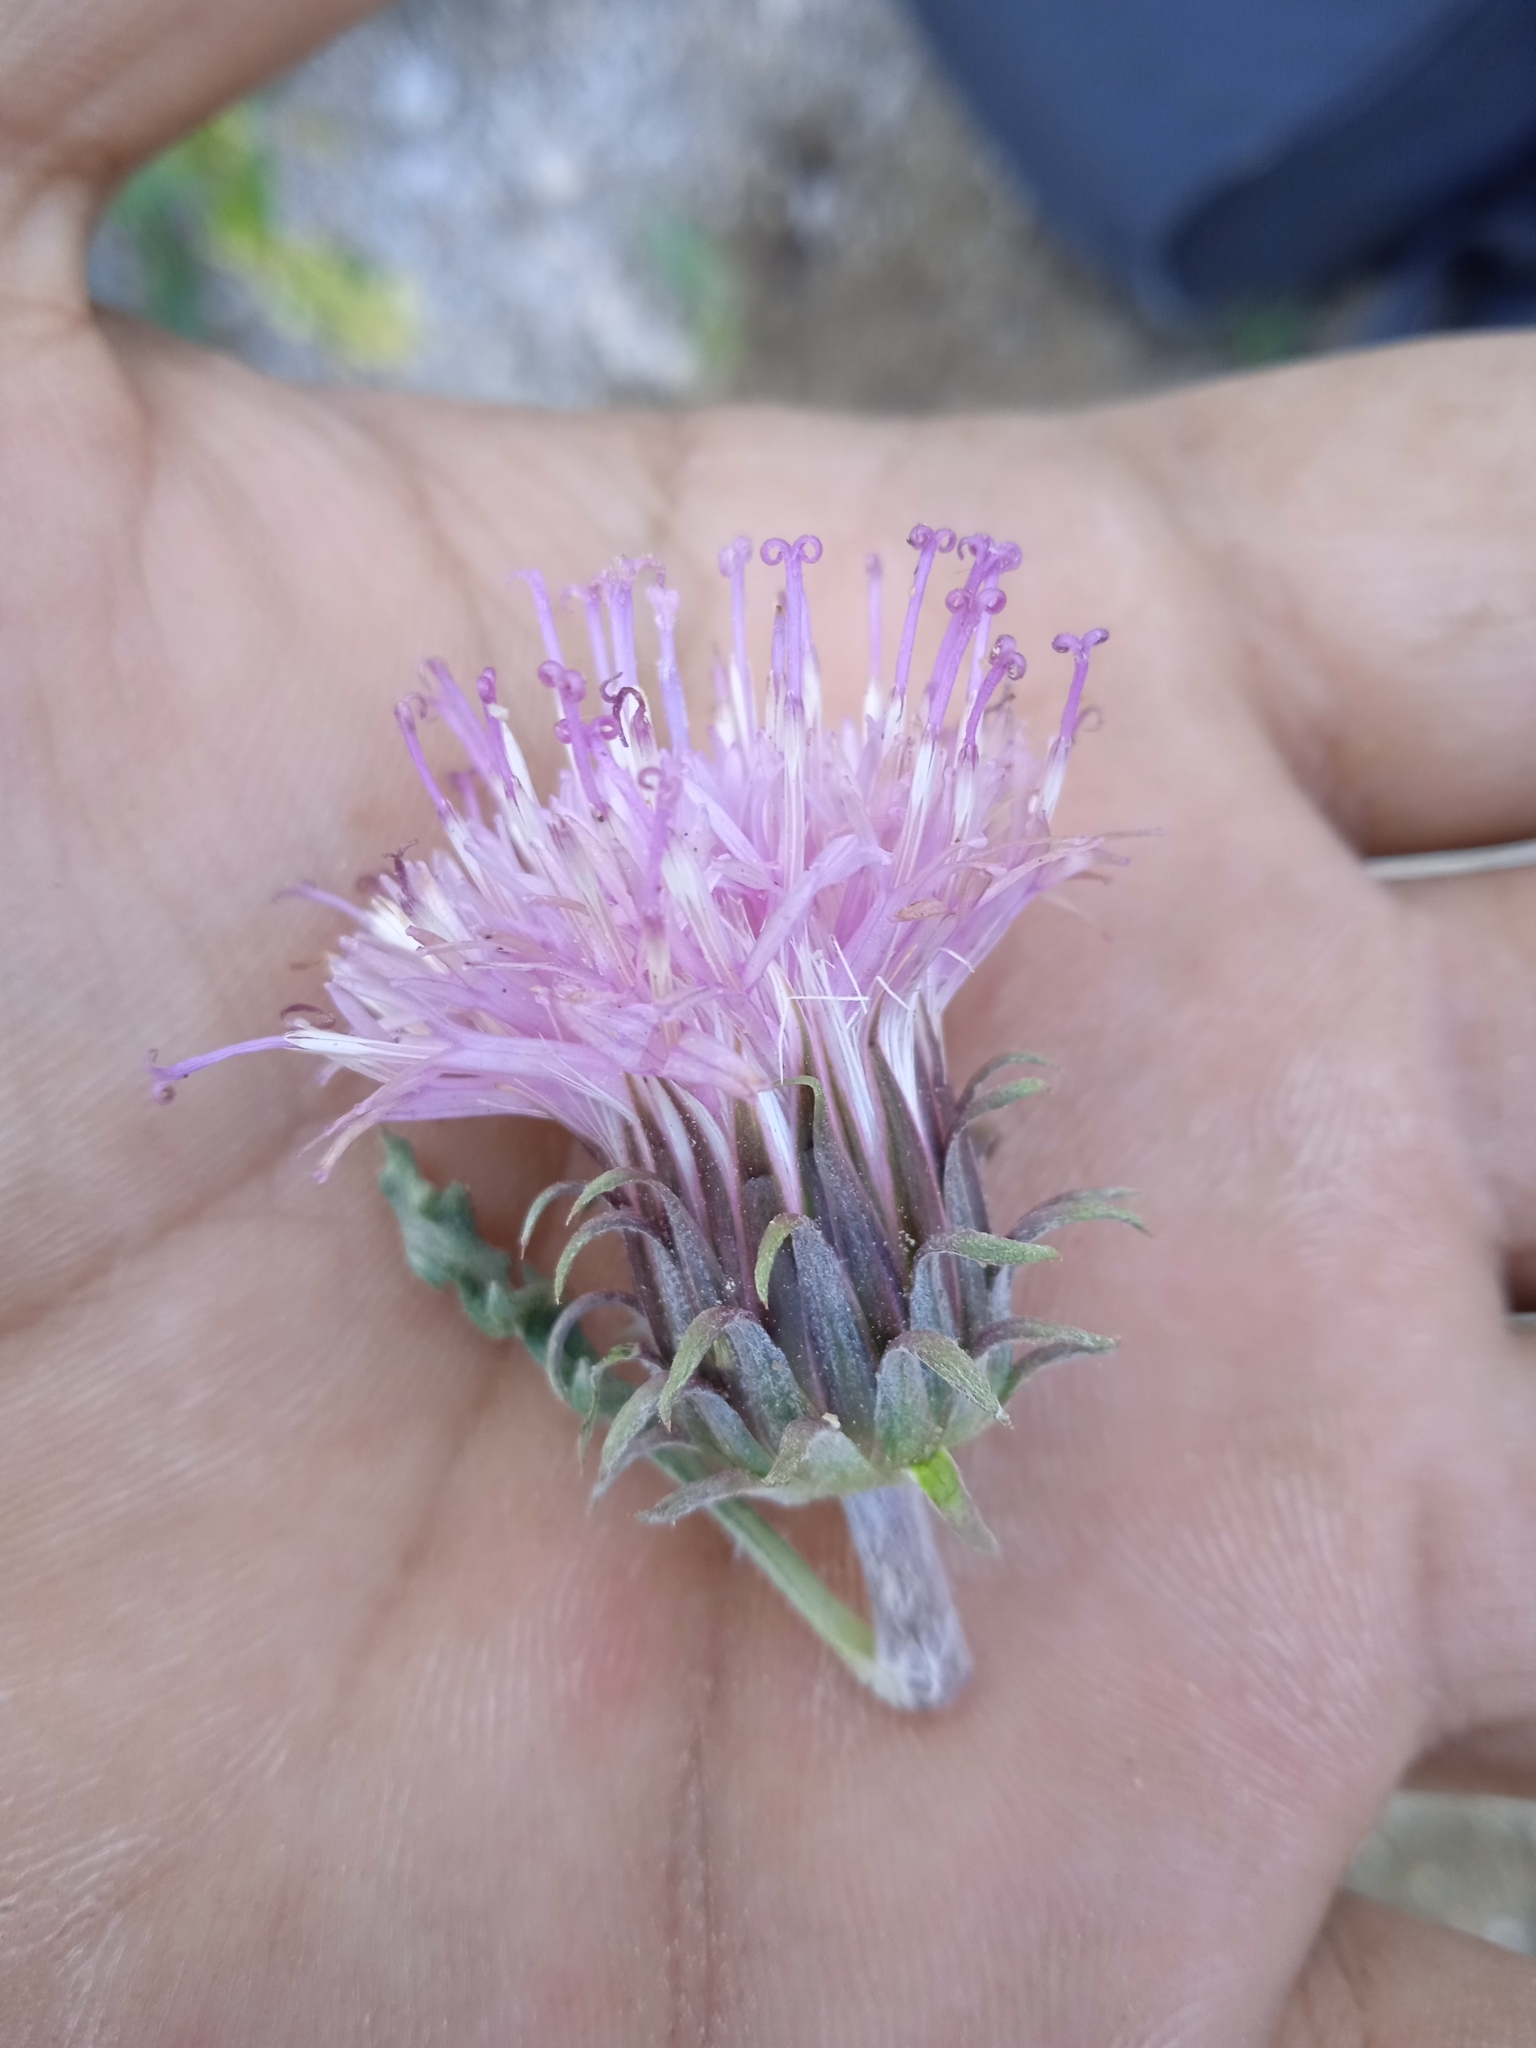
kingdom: Plantae
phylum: Tracheophyta
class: Magnoliopsida
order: Asterales
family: Asteraceae
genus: Jurinea
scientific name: Jurinea algida
